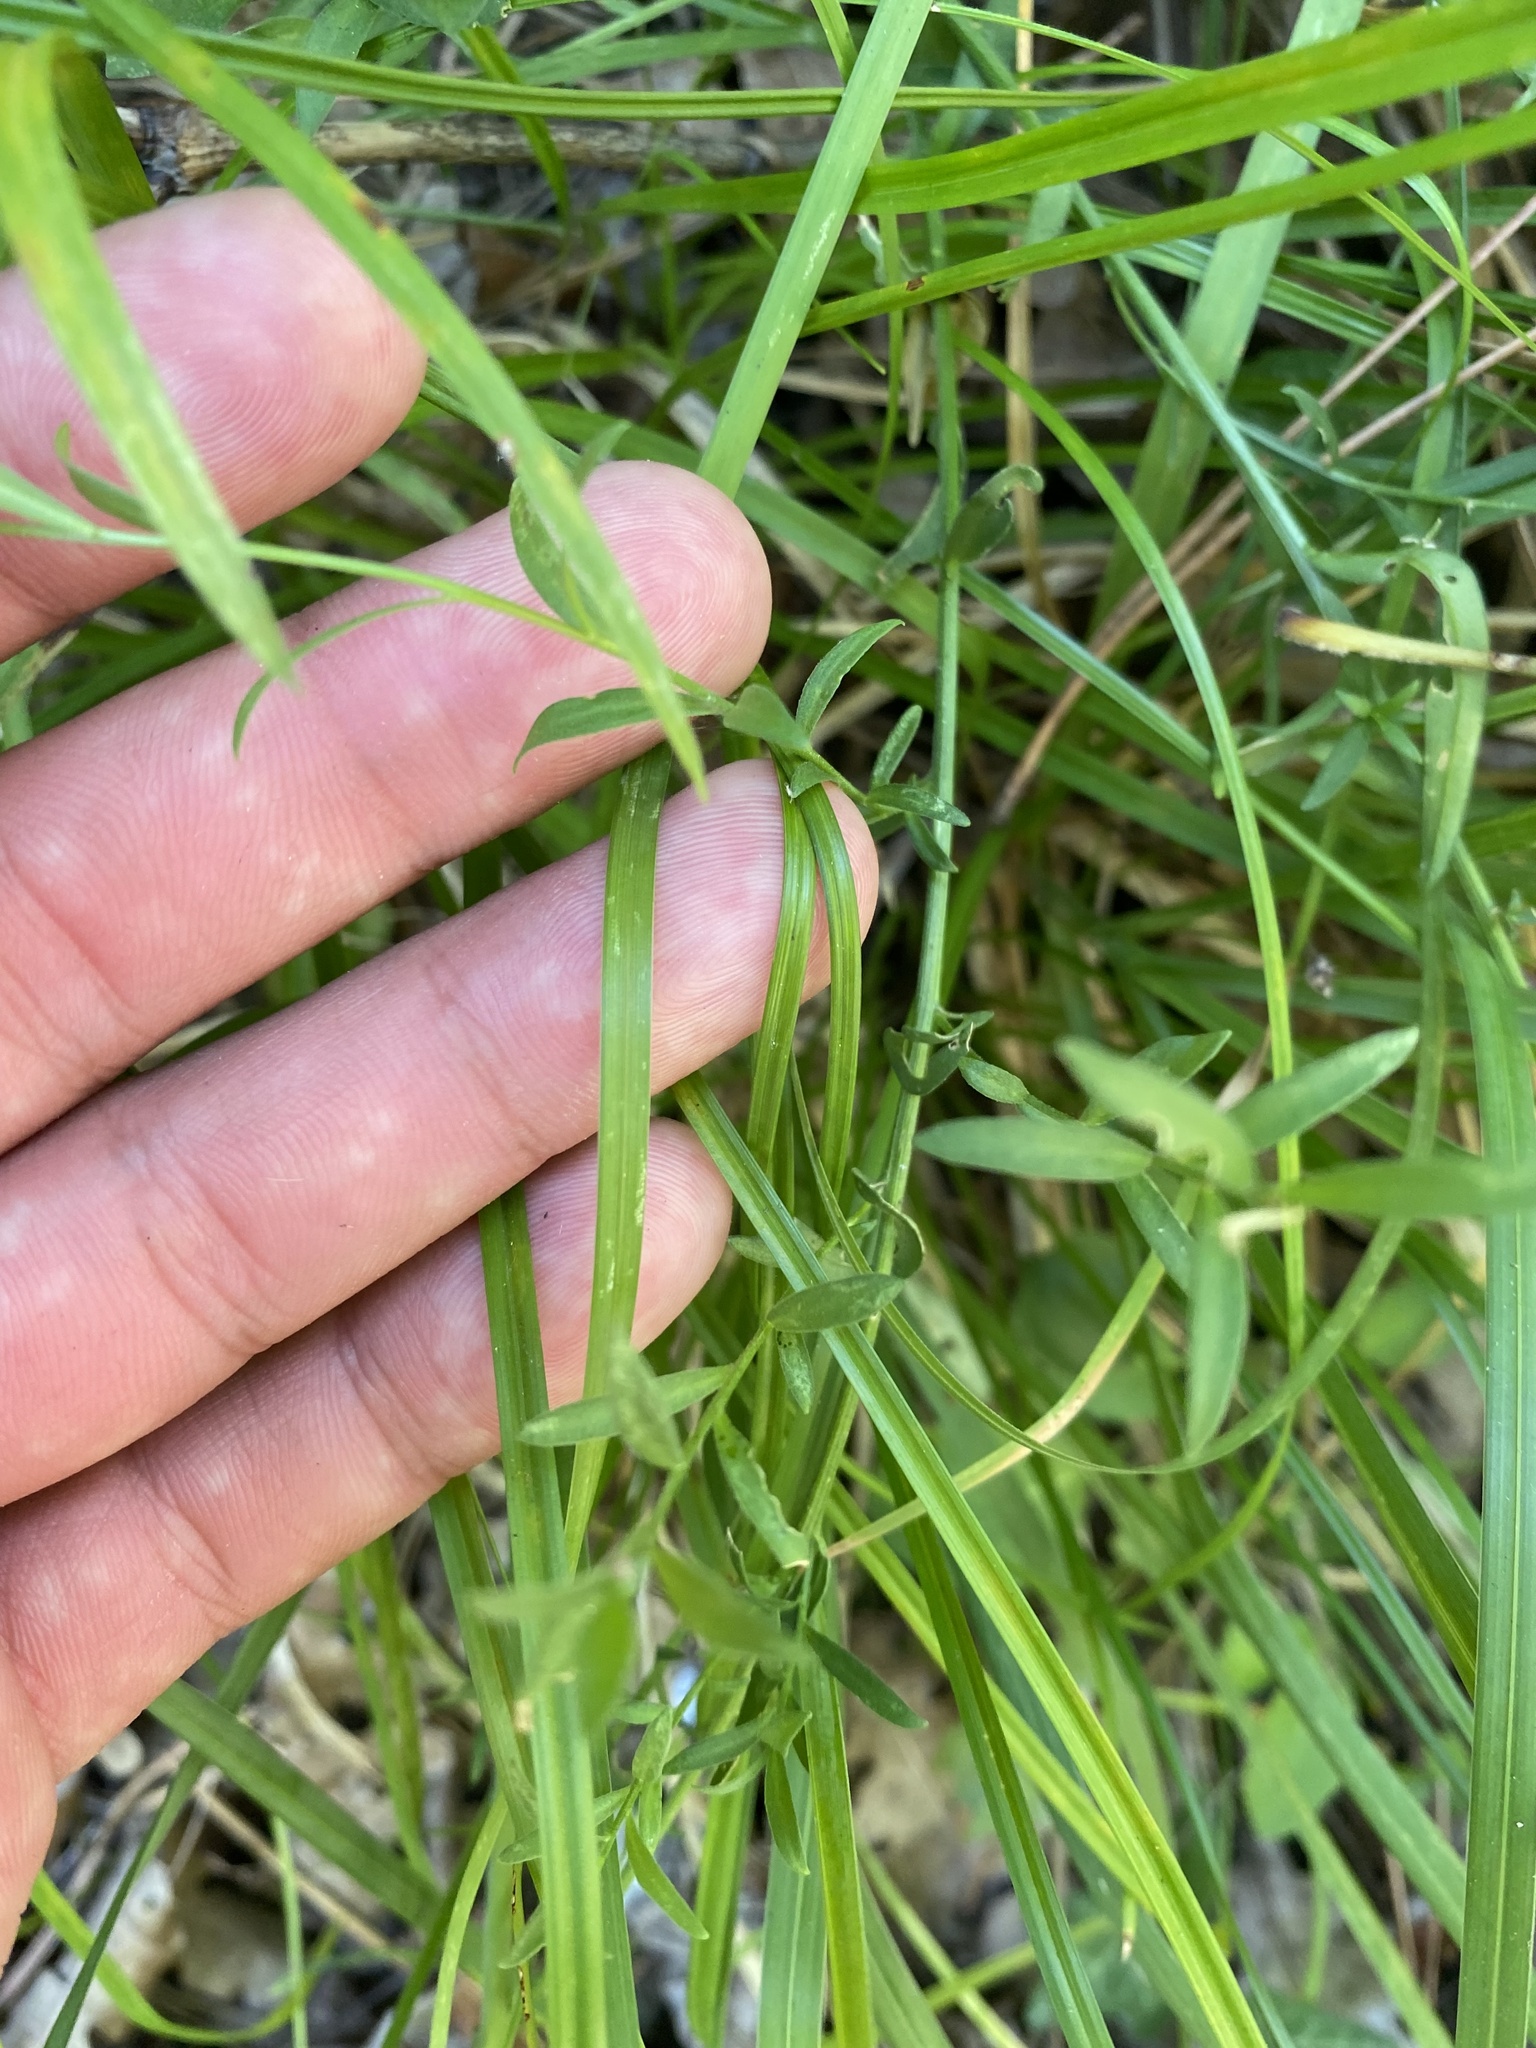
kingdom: Plantae
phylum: Tracheophyta
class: Magnoliopsida
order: Fabales
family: Polygalaceae
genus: Polygala
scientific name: Polygala major
